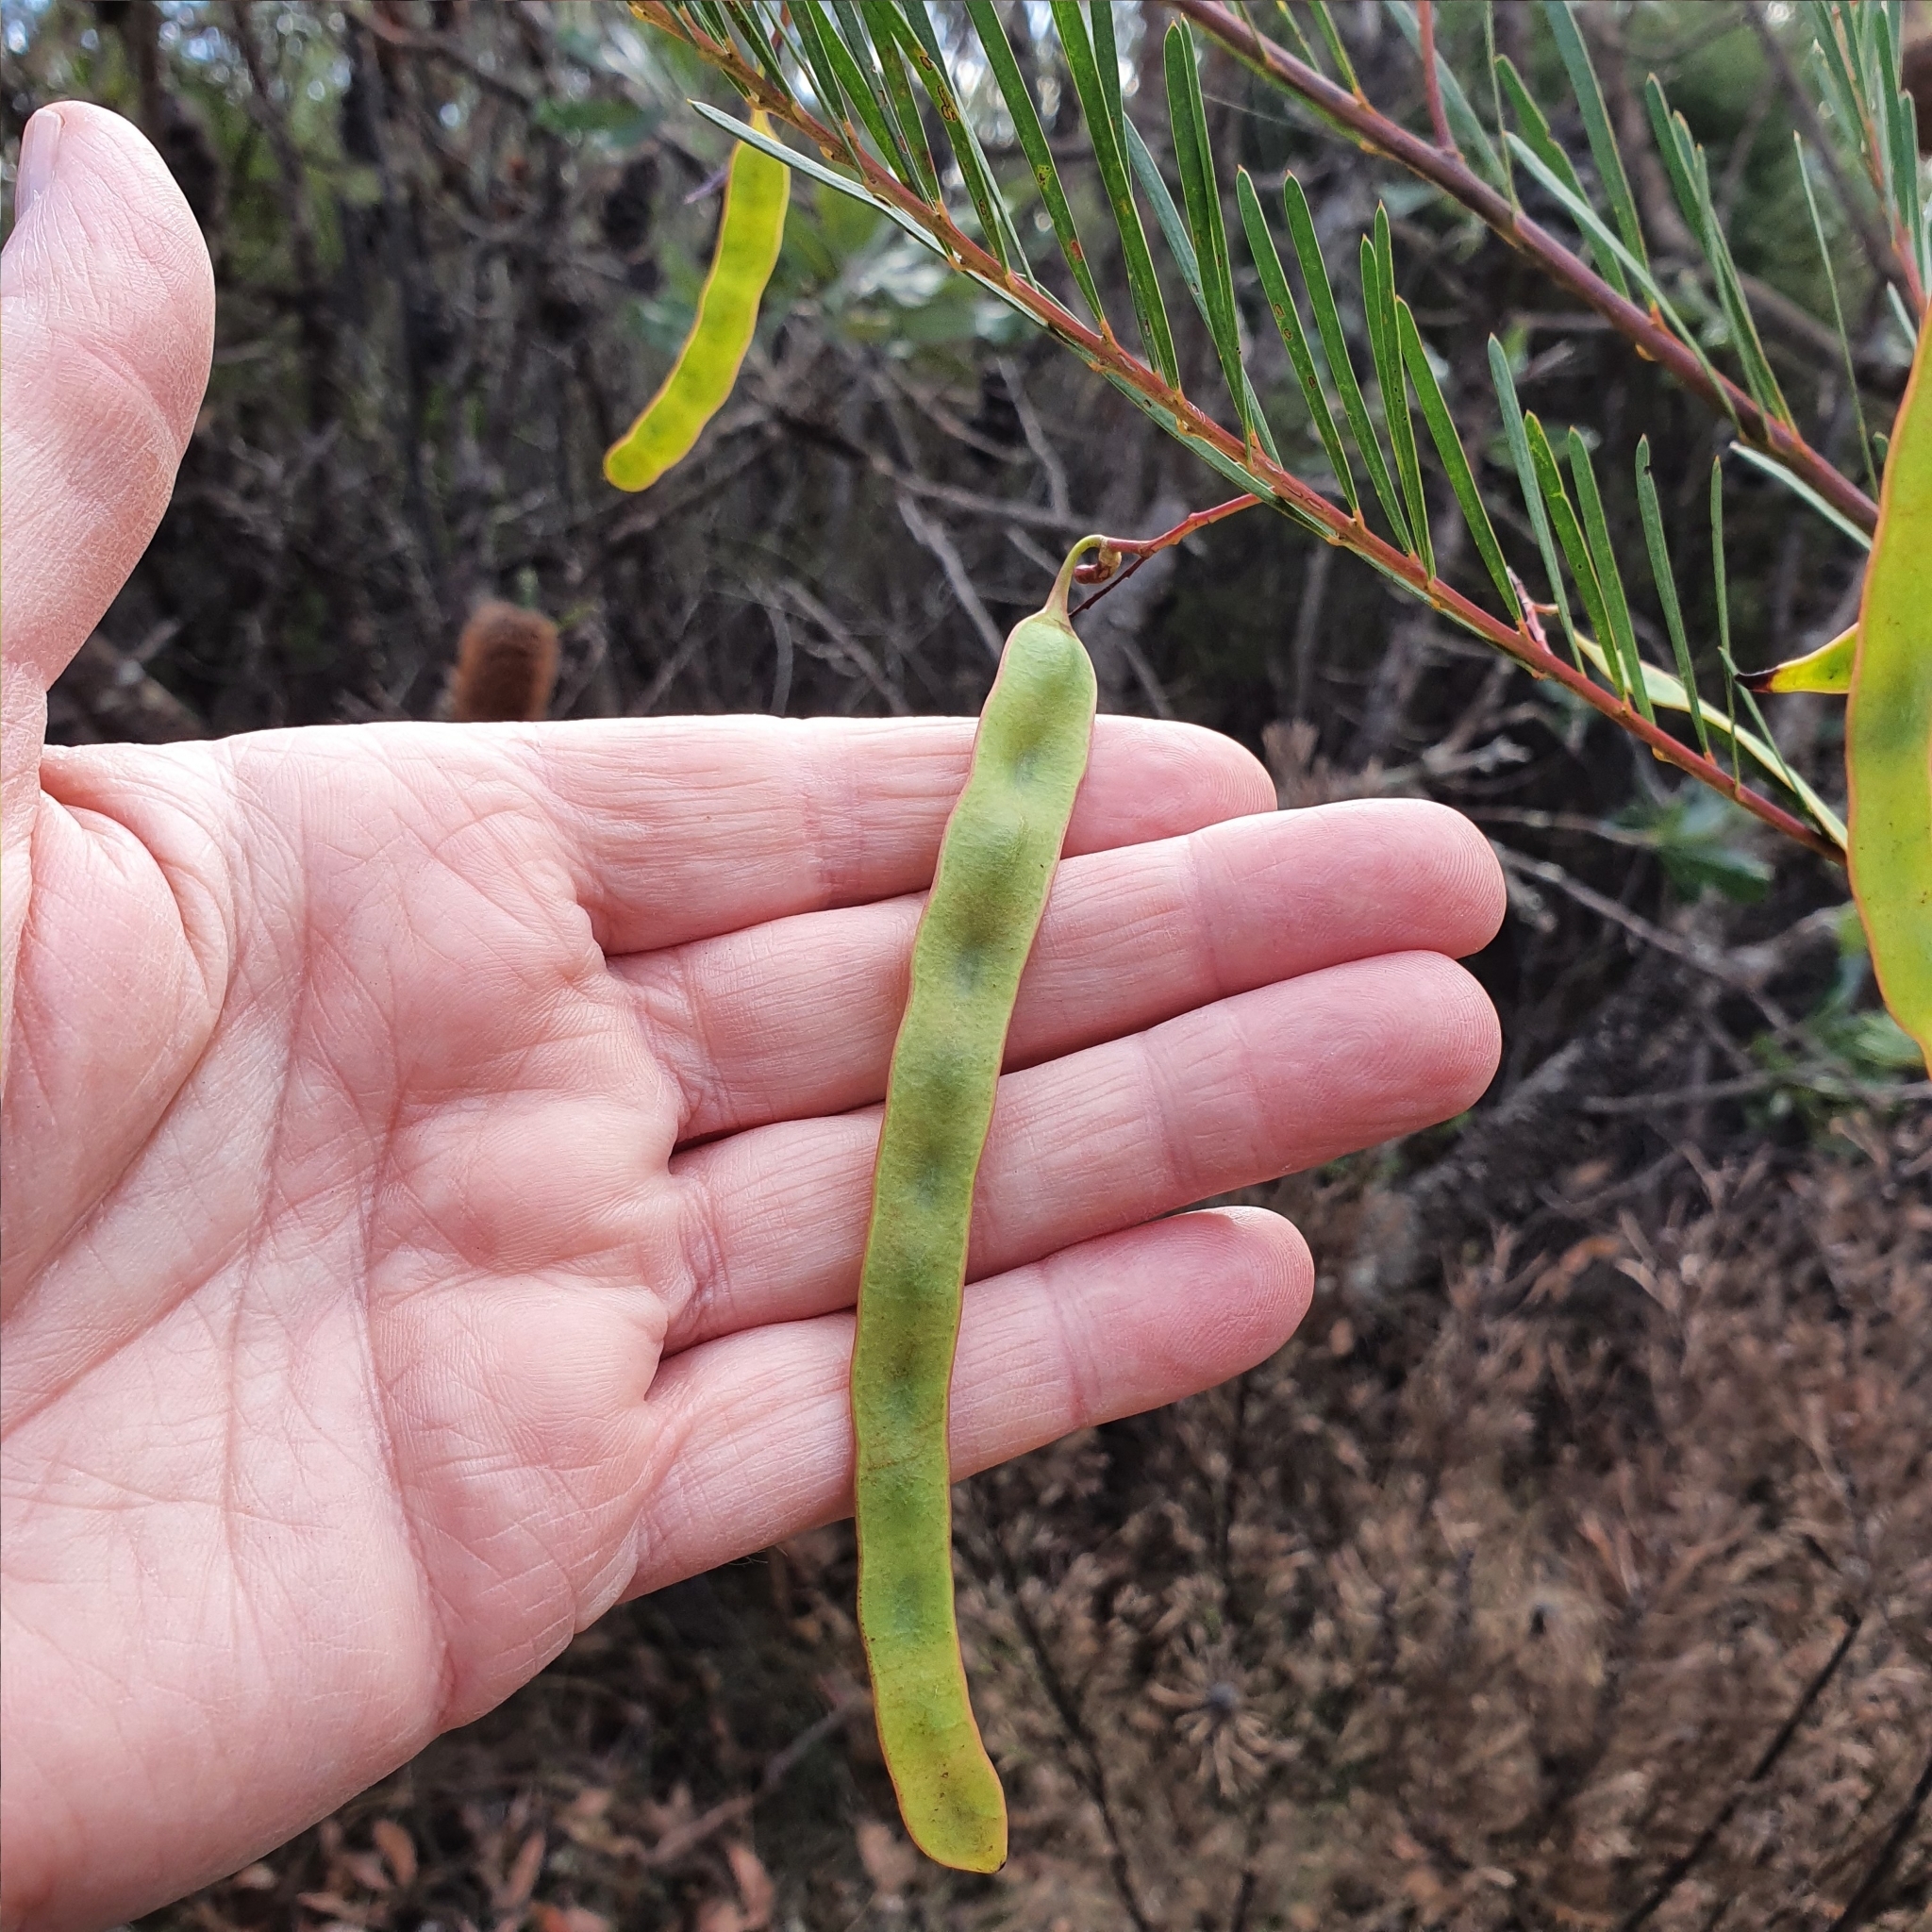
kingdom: Plantae
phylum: Tracheophyta
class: Magnoliopsida
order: Fabales
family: Fabaceae
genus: Acacia
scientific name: Acacia linifolia
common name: White wattle
